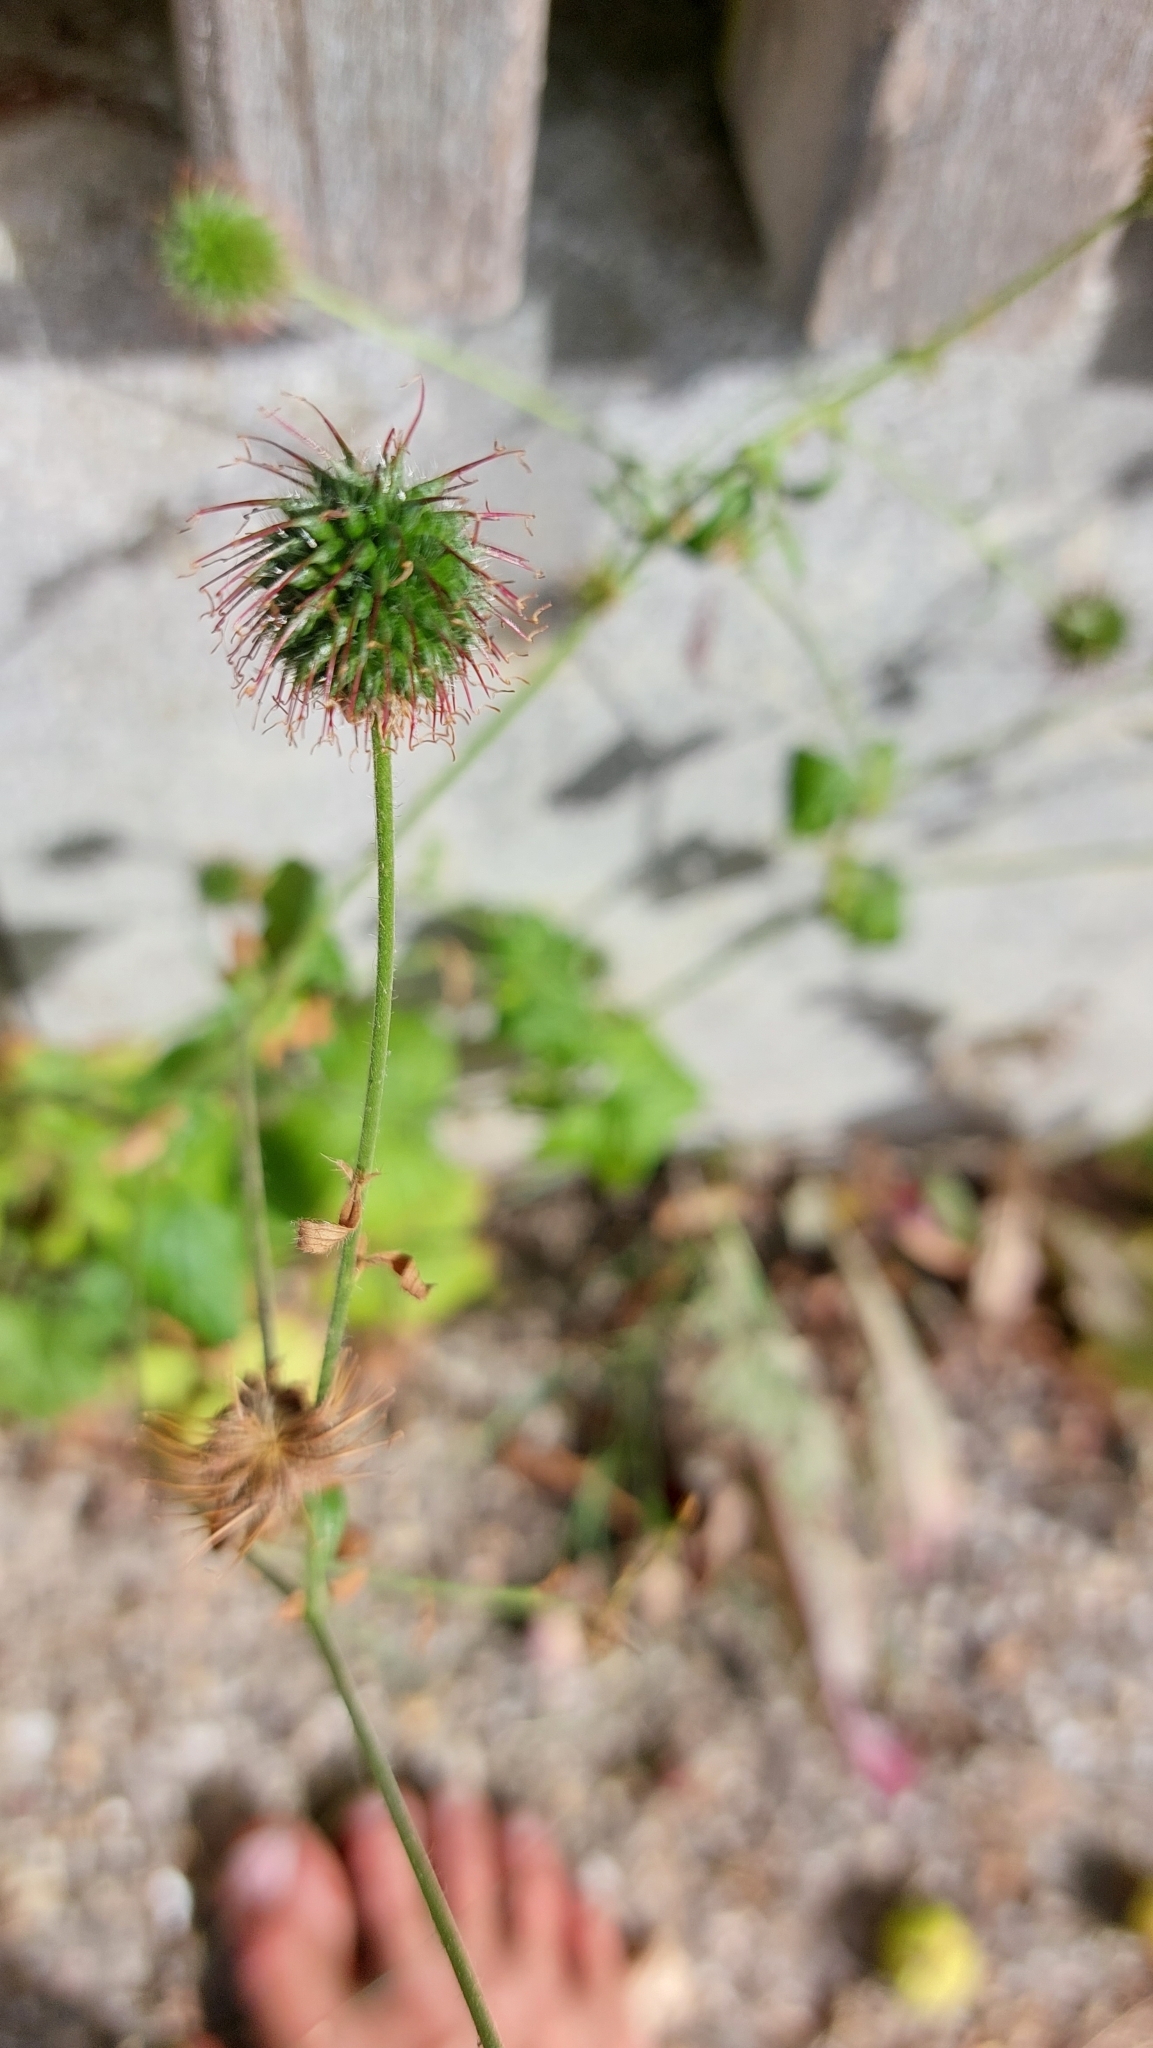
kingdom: Plantae
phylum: Tracheophyta
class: Magnoliopsida
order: Rosales
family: Rosaceae
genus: Geum
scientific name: Geum urbanum
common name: Wood avens
